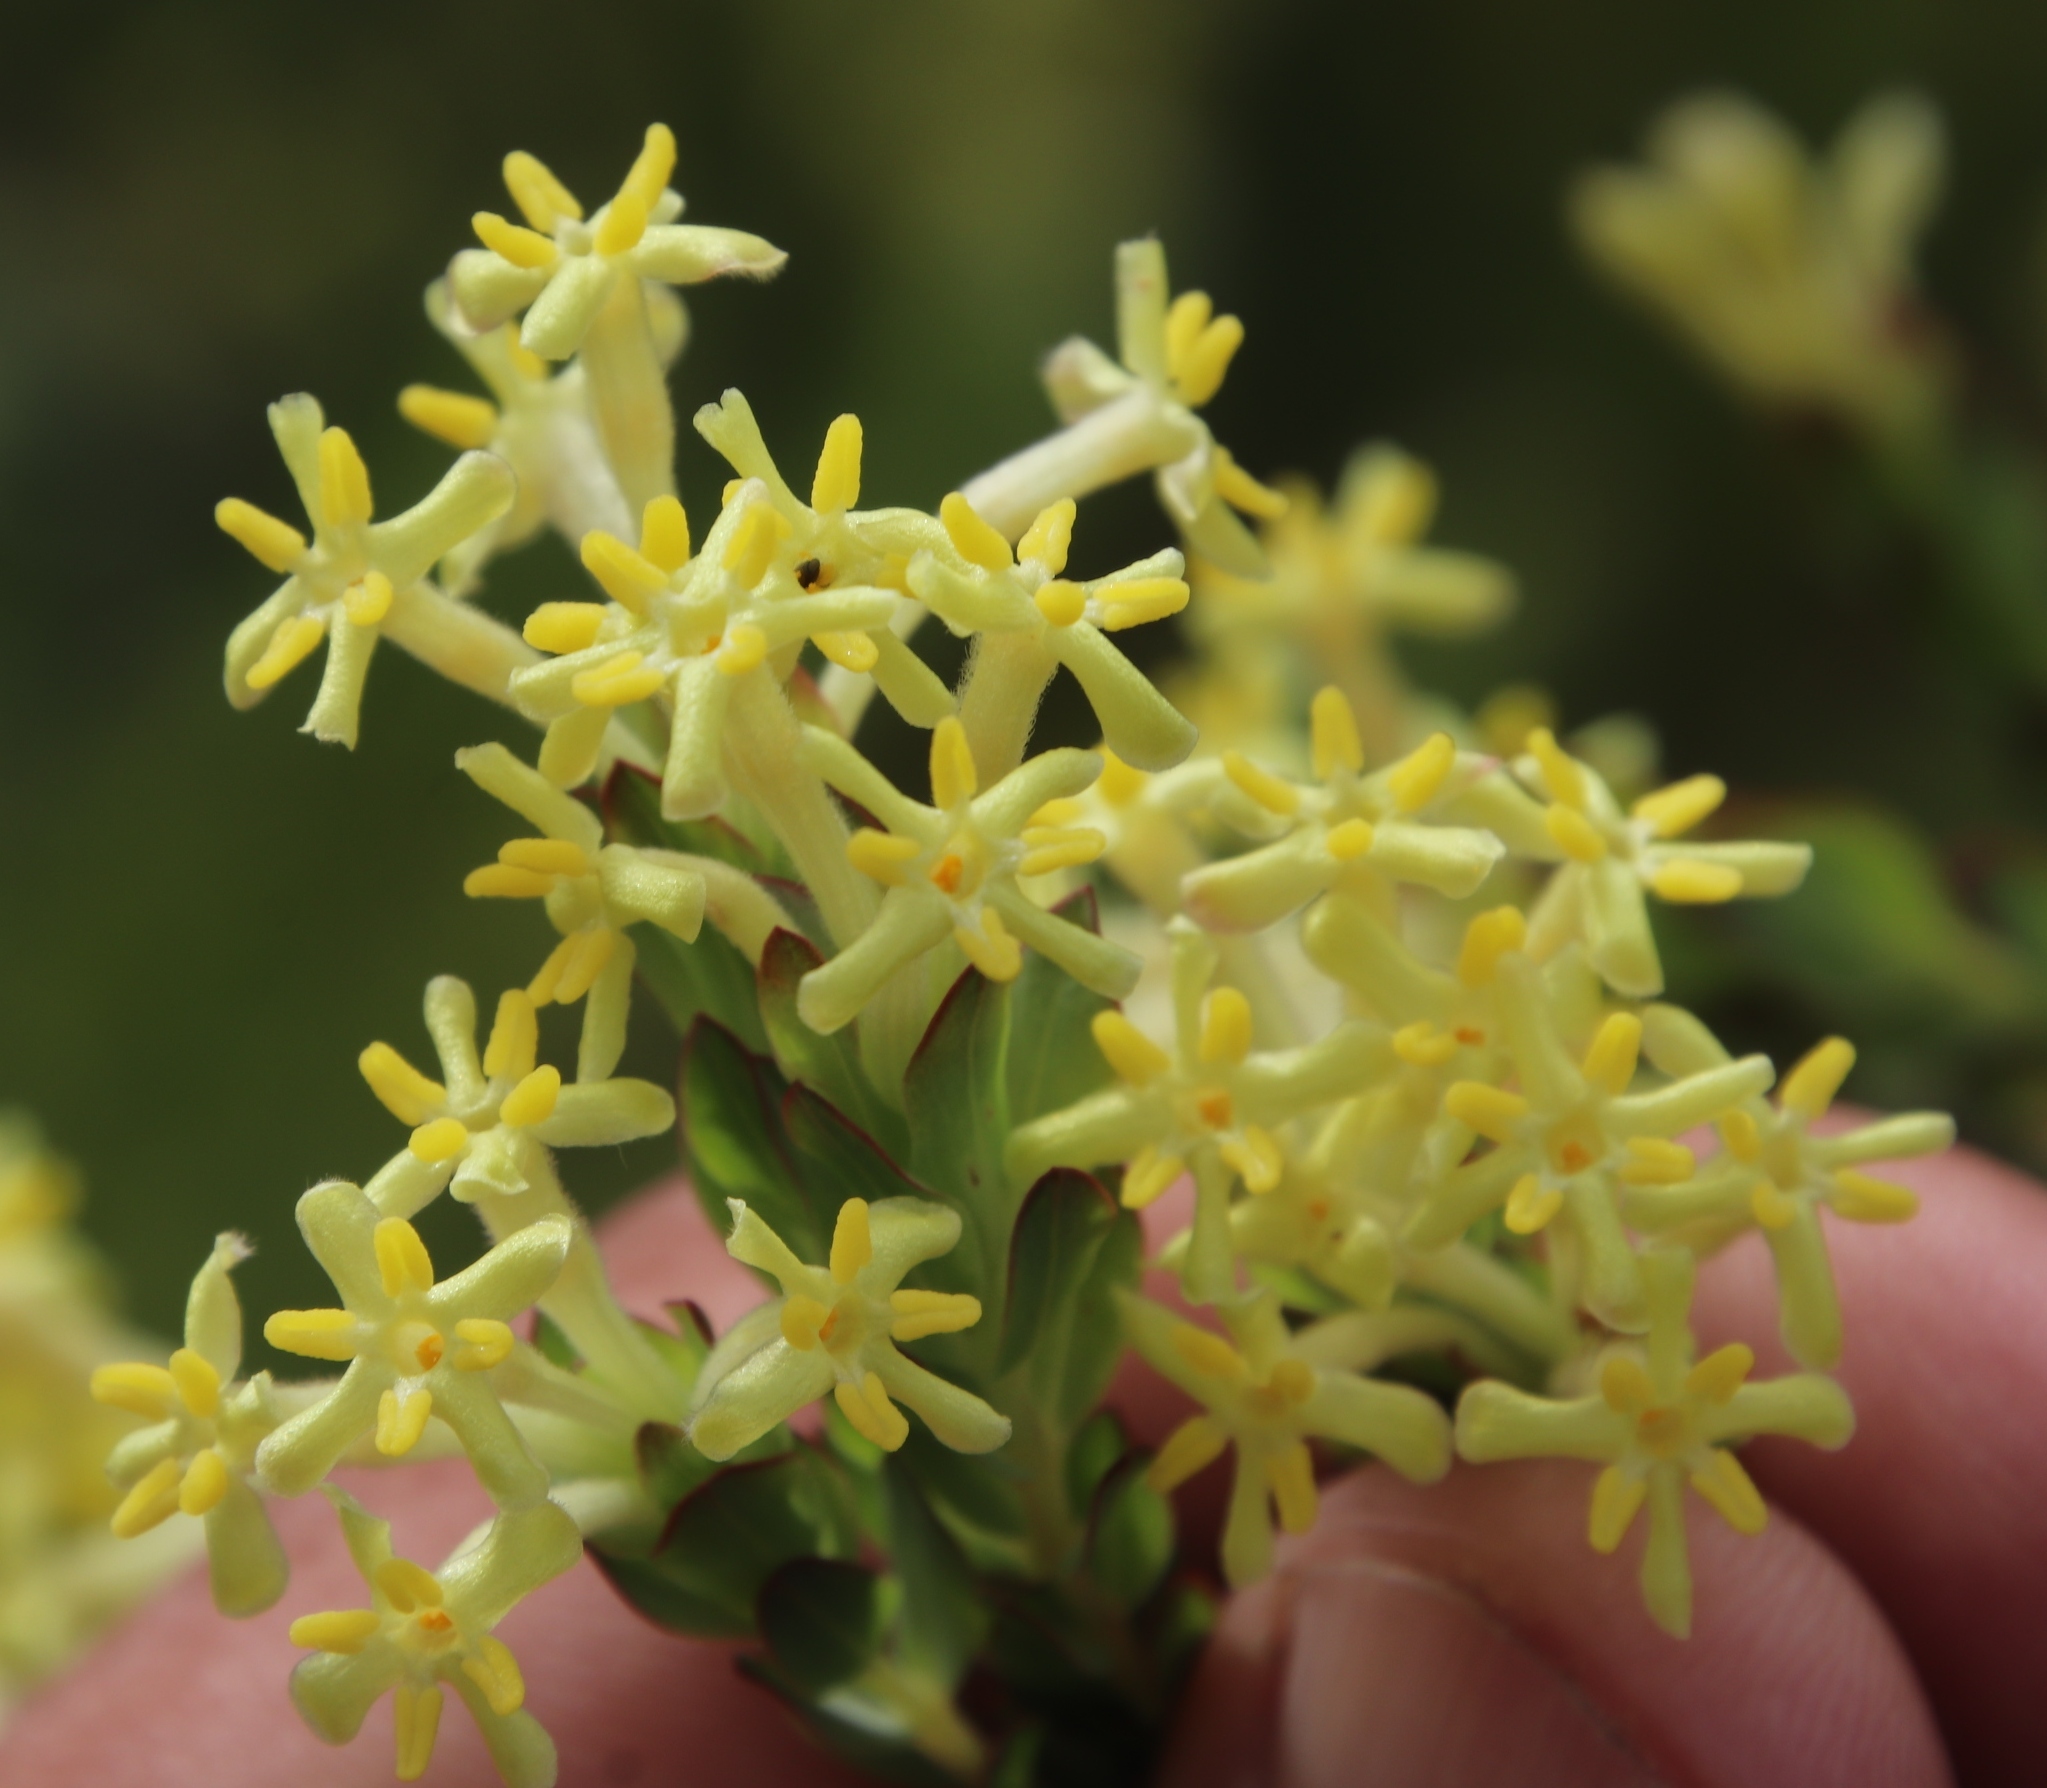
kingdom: Plantae
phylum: Tracheophyta
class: Magnoliopsida
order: Malvales
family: Thymelaeaceae
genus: Gnidia
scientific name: Gnidia oppositifolia
